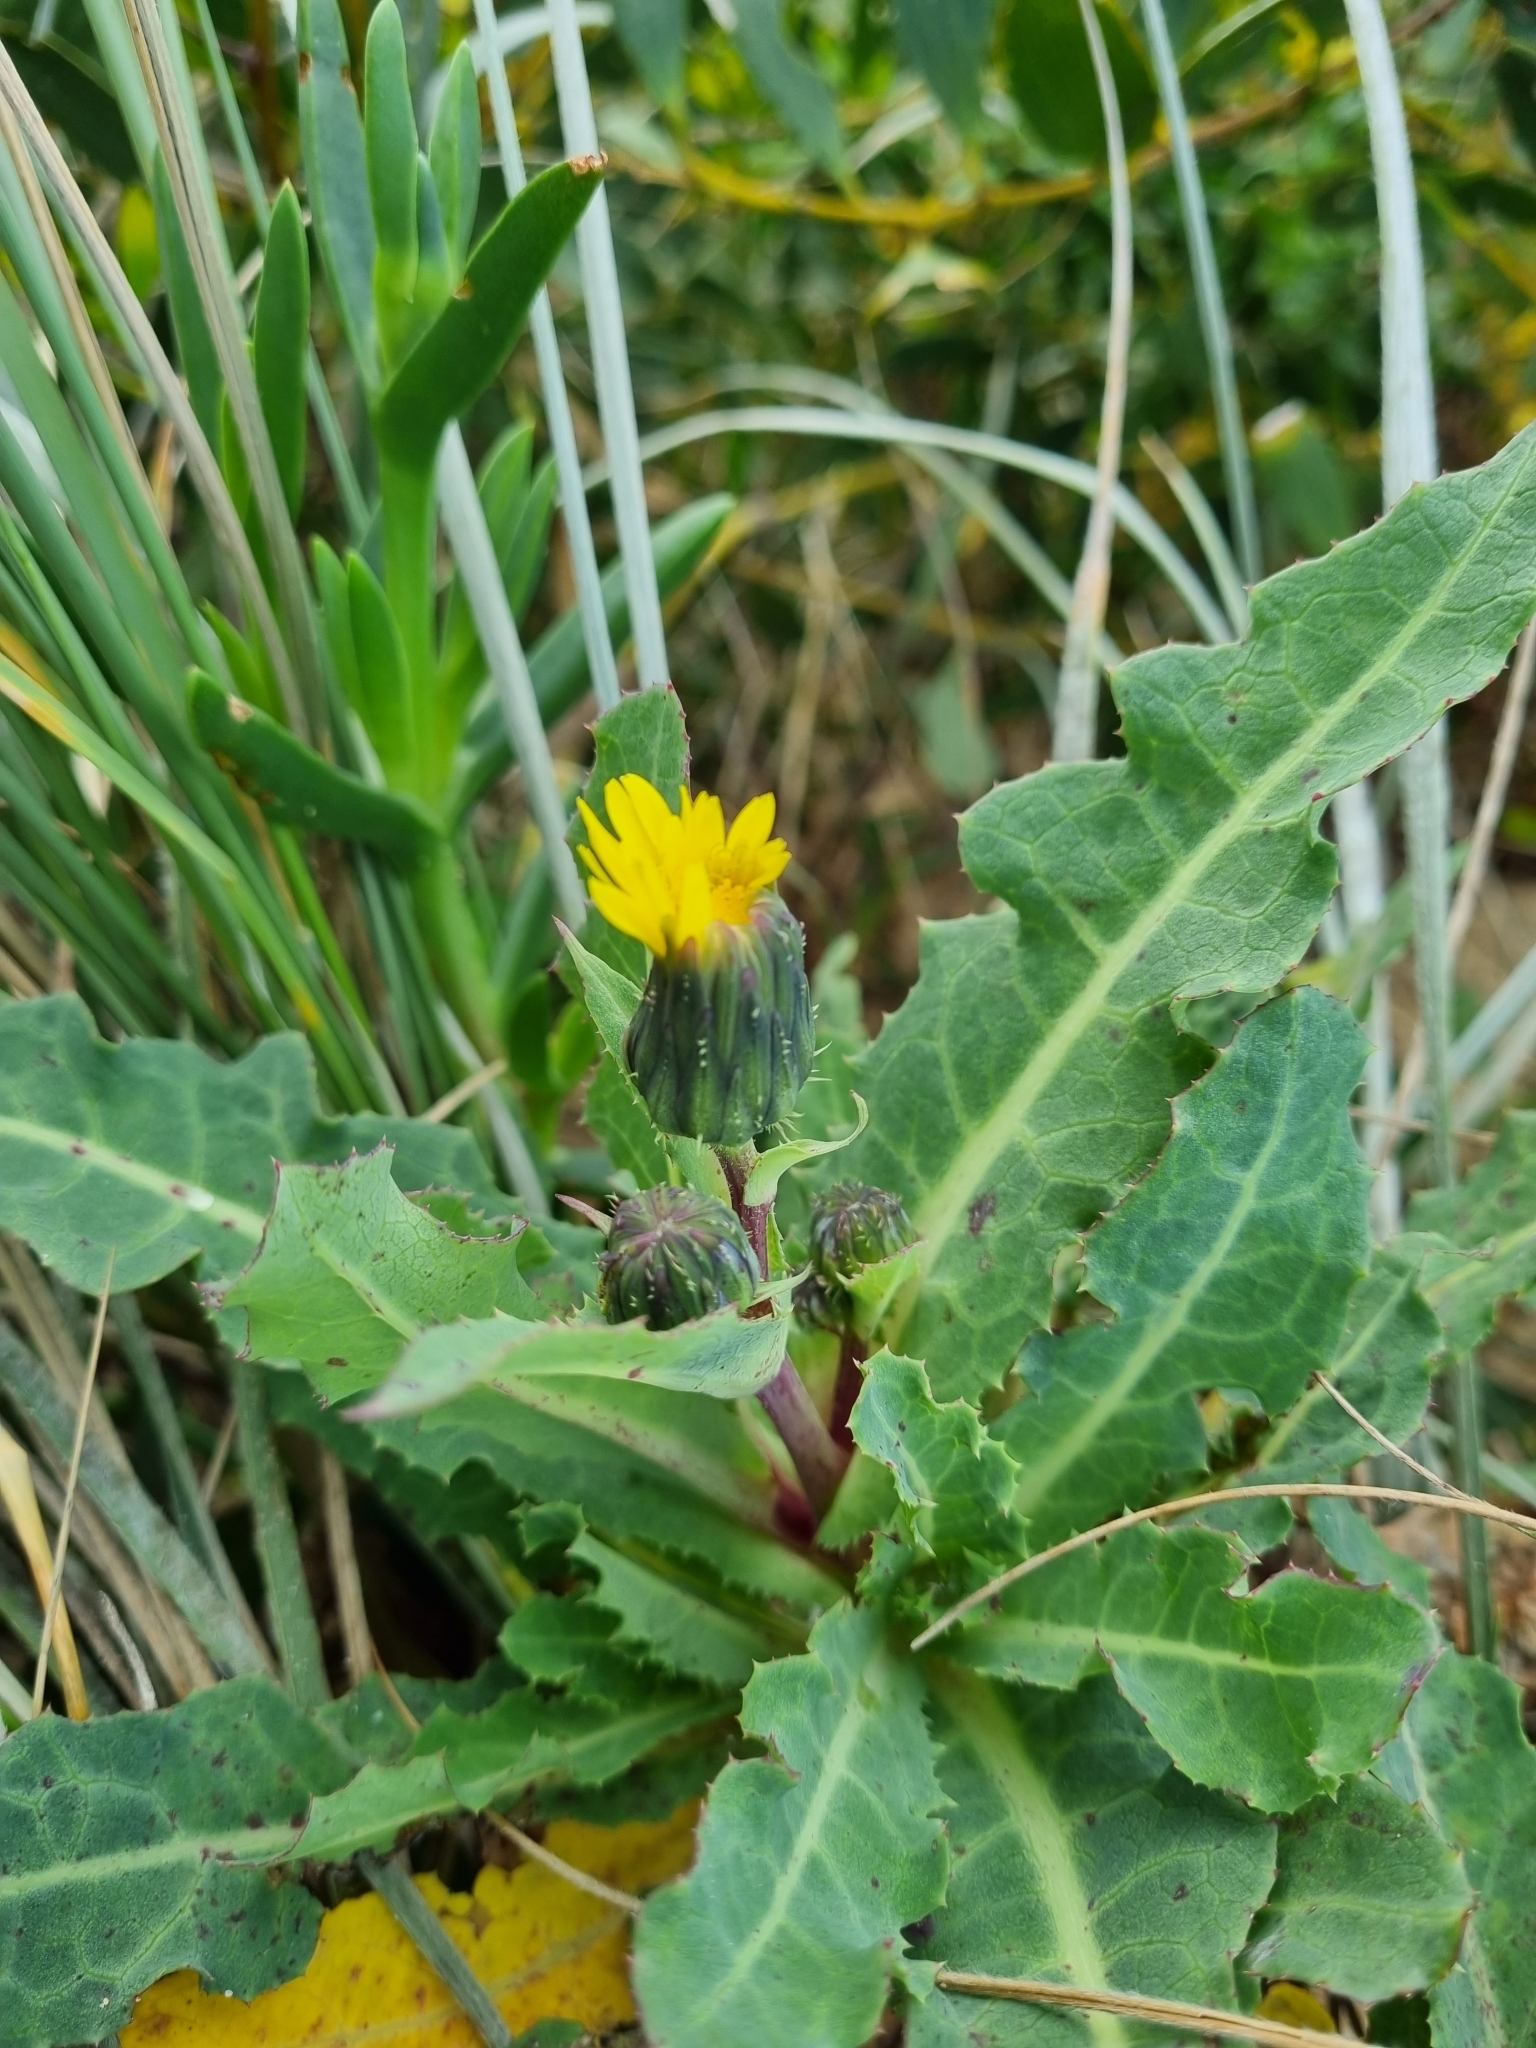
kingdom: Plantae
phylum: Tracheophyta
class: Magnoliopsida
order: Asterales
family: Asteraceae
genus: Sonchus
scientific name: Sonchus megalocarpus
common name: Dune thistle
